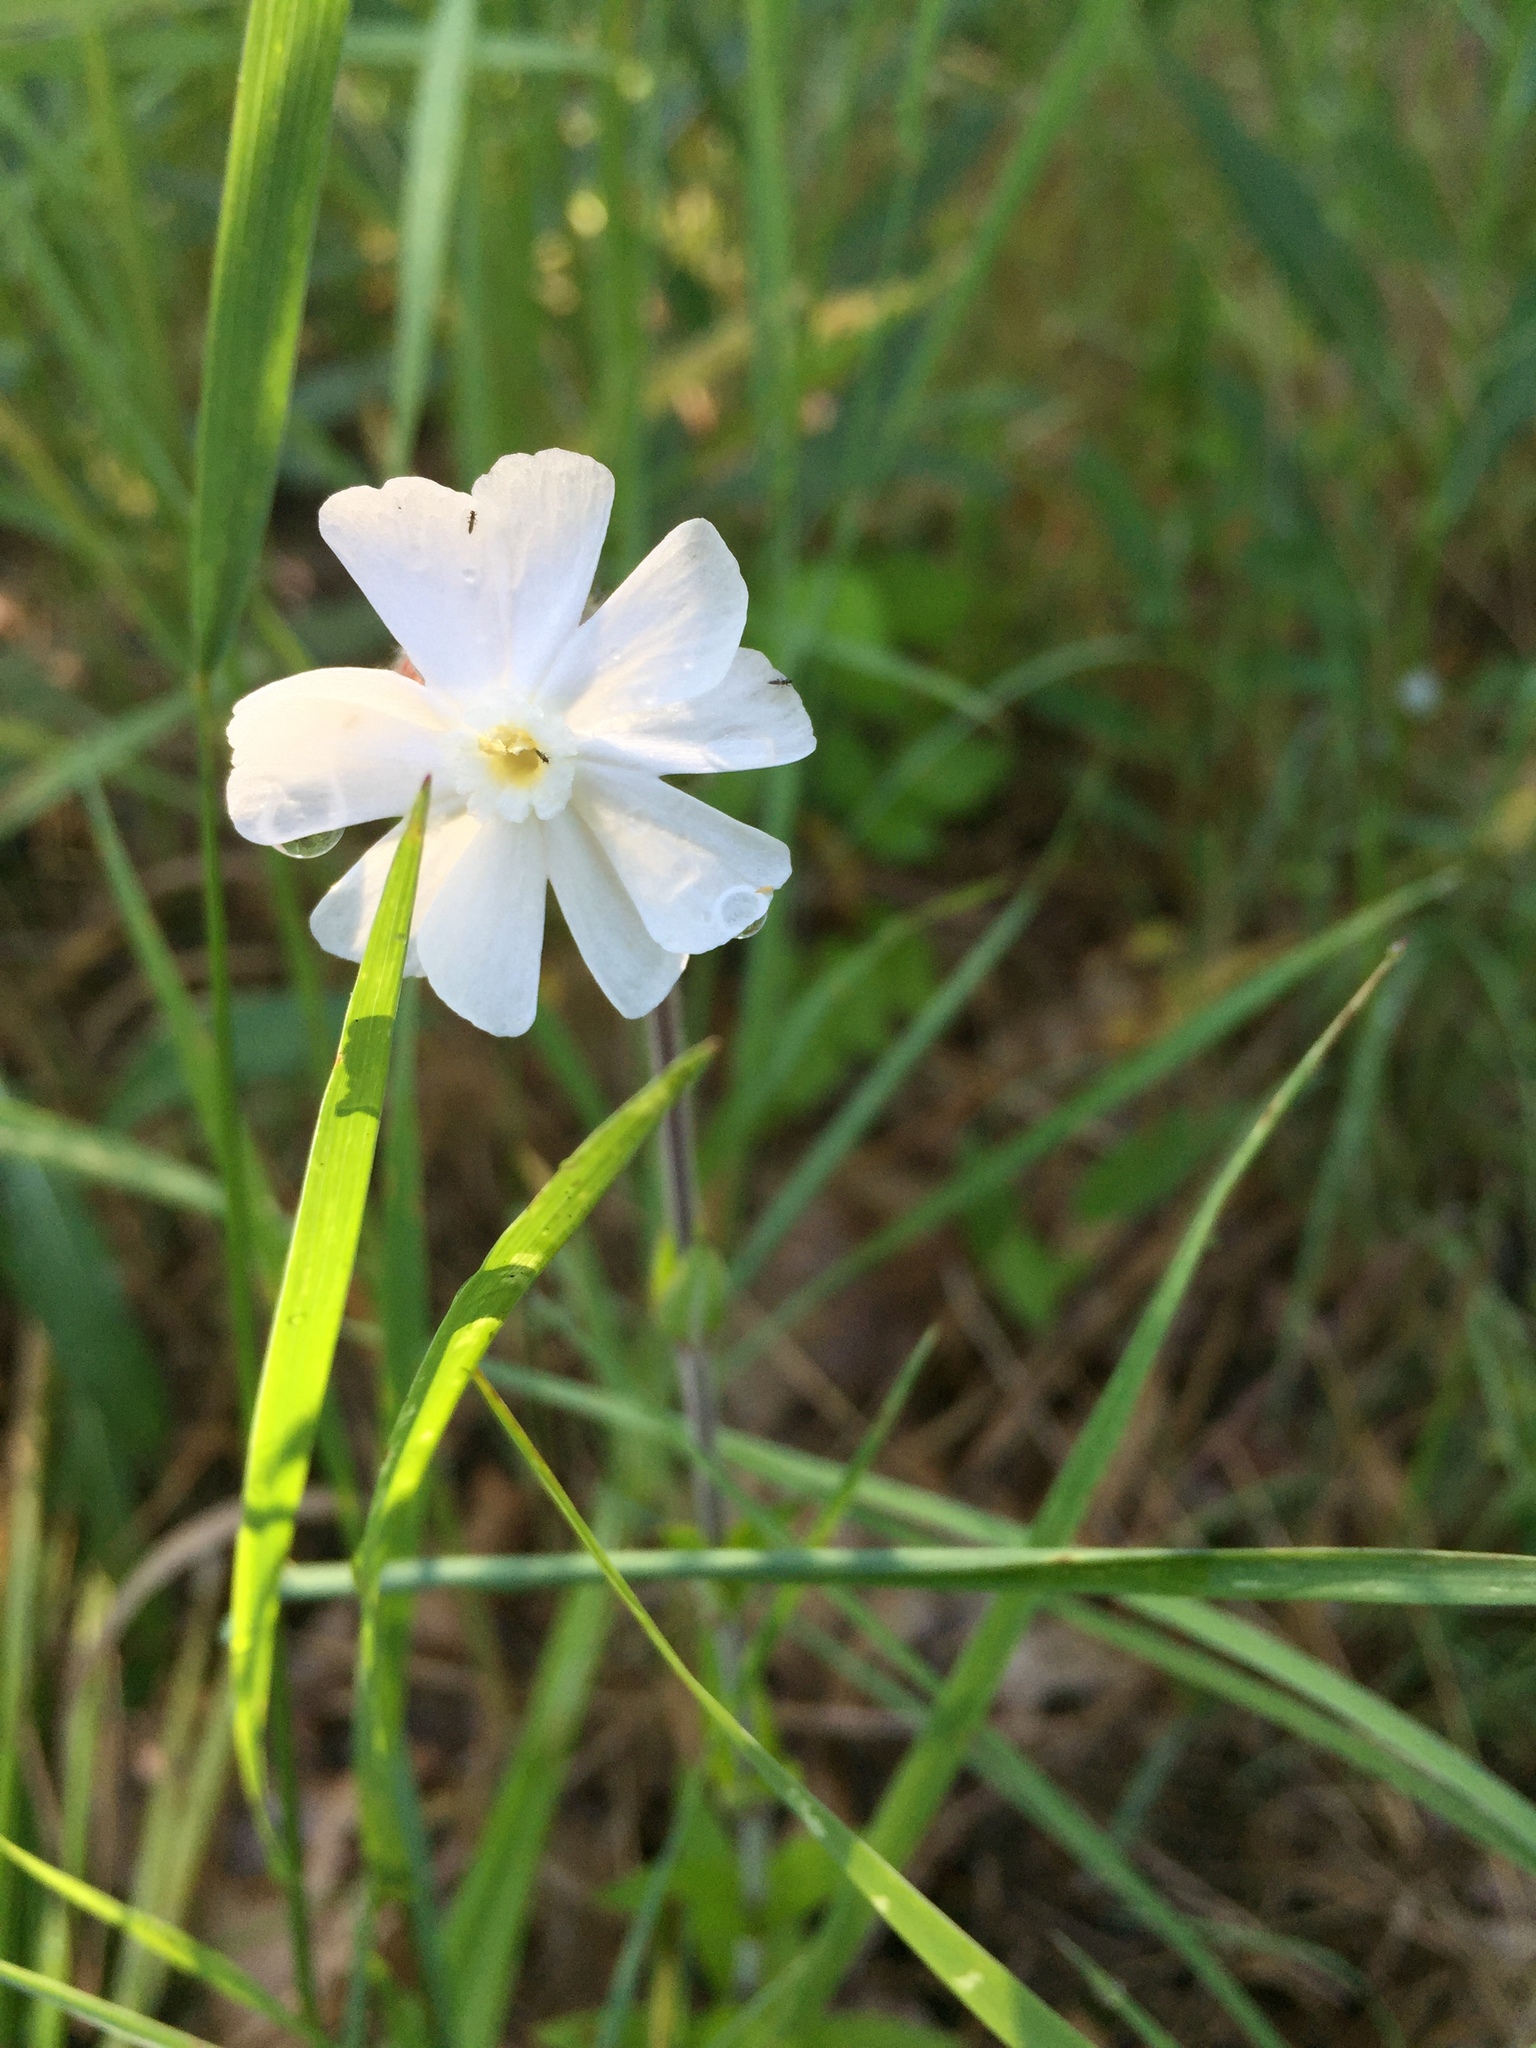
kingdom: Plantae
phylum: Tracheophyta
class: Magnoliopsida
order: Caryophyllales
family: Caryophyllaceae
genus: Silene
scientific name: Silene latifolia
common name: White campion
